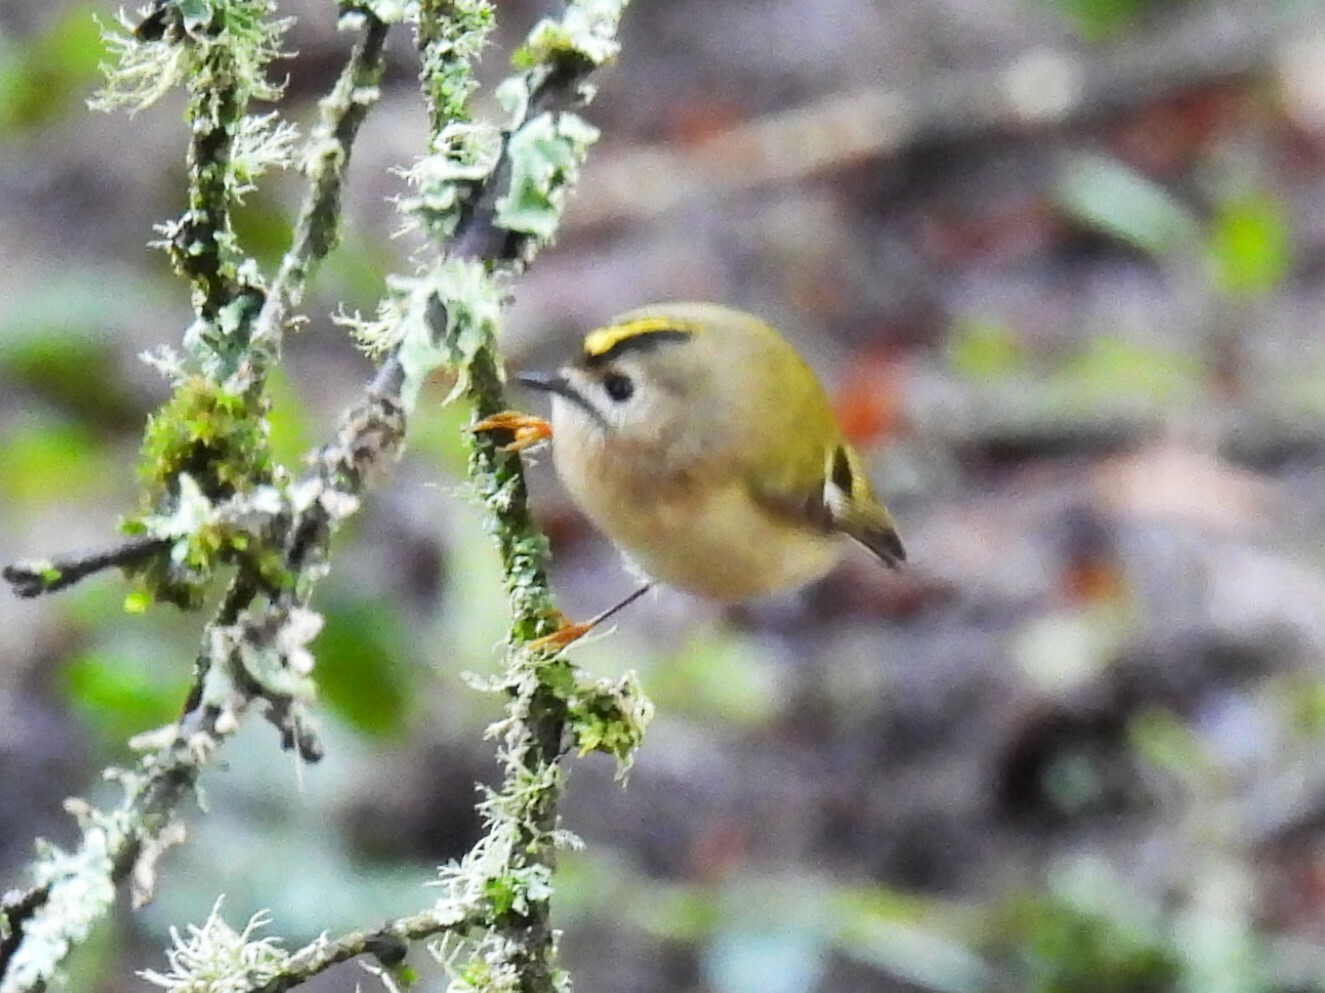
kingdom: Animalia
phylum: Chordata
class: Aves
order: Passeriformes
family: Regulidae
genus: Regulus
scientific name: Regulus regulus
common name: Goldcrest
